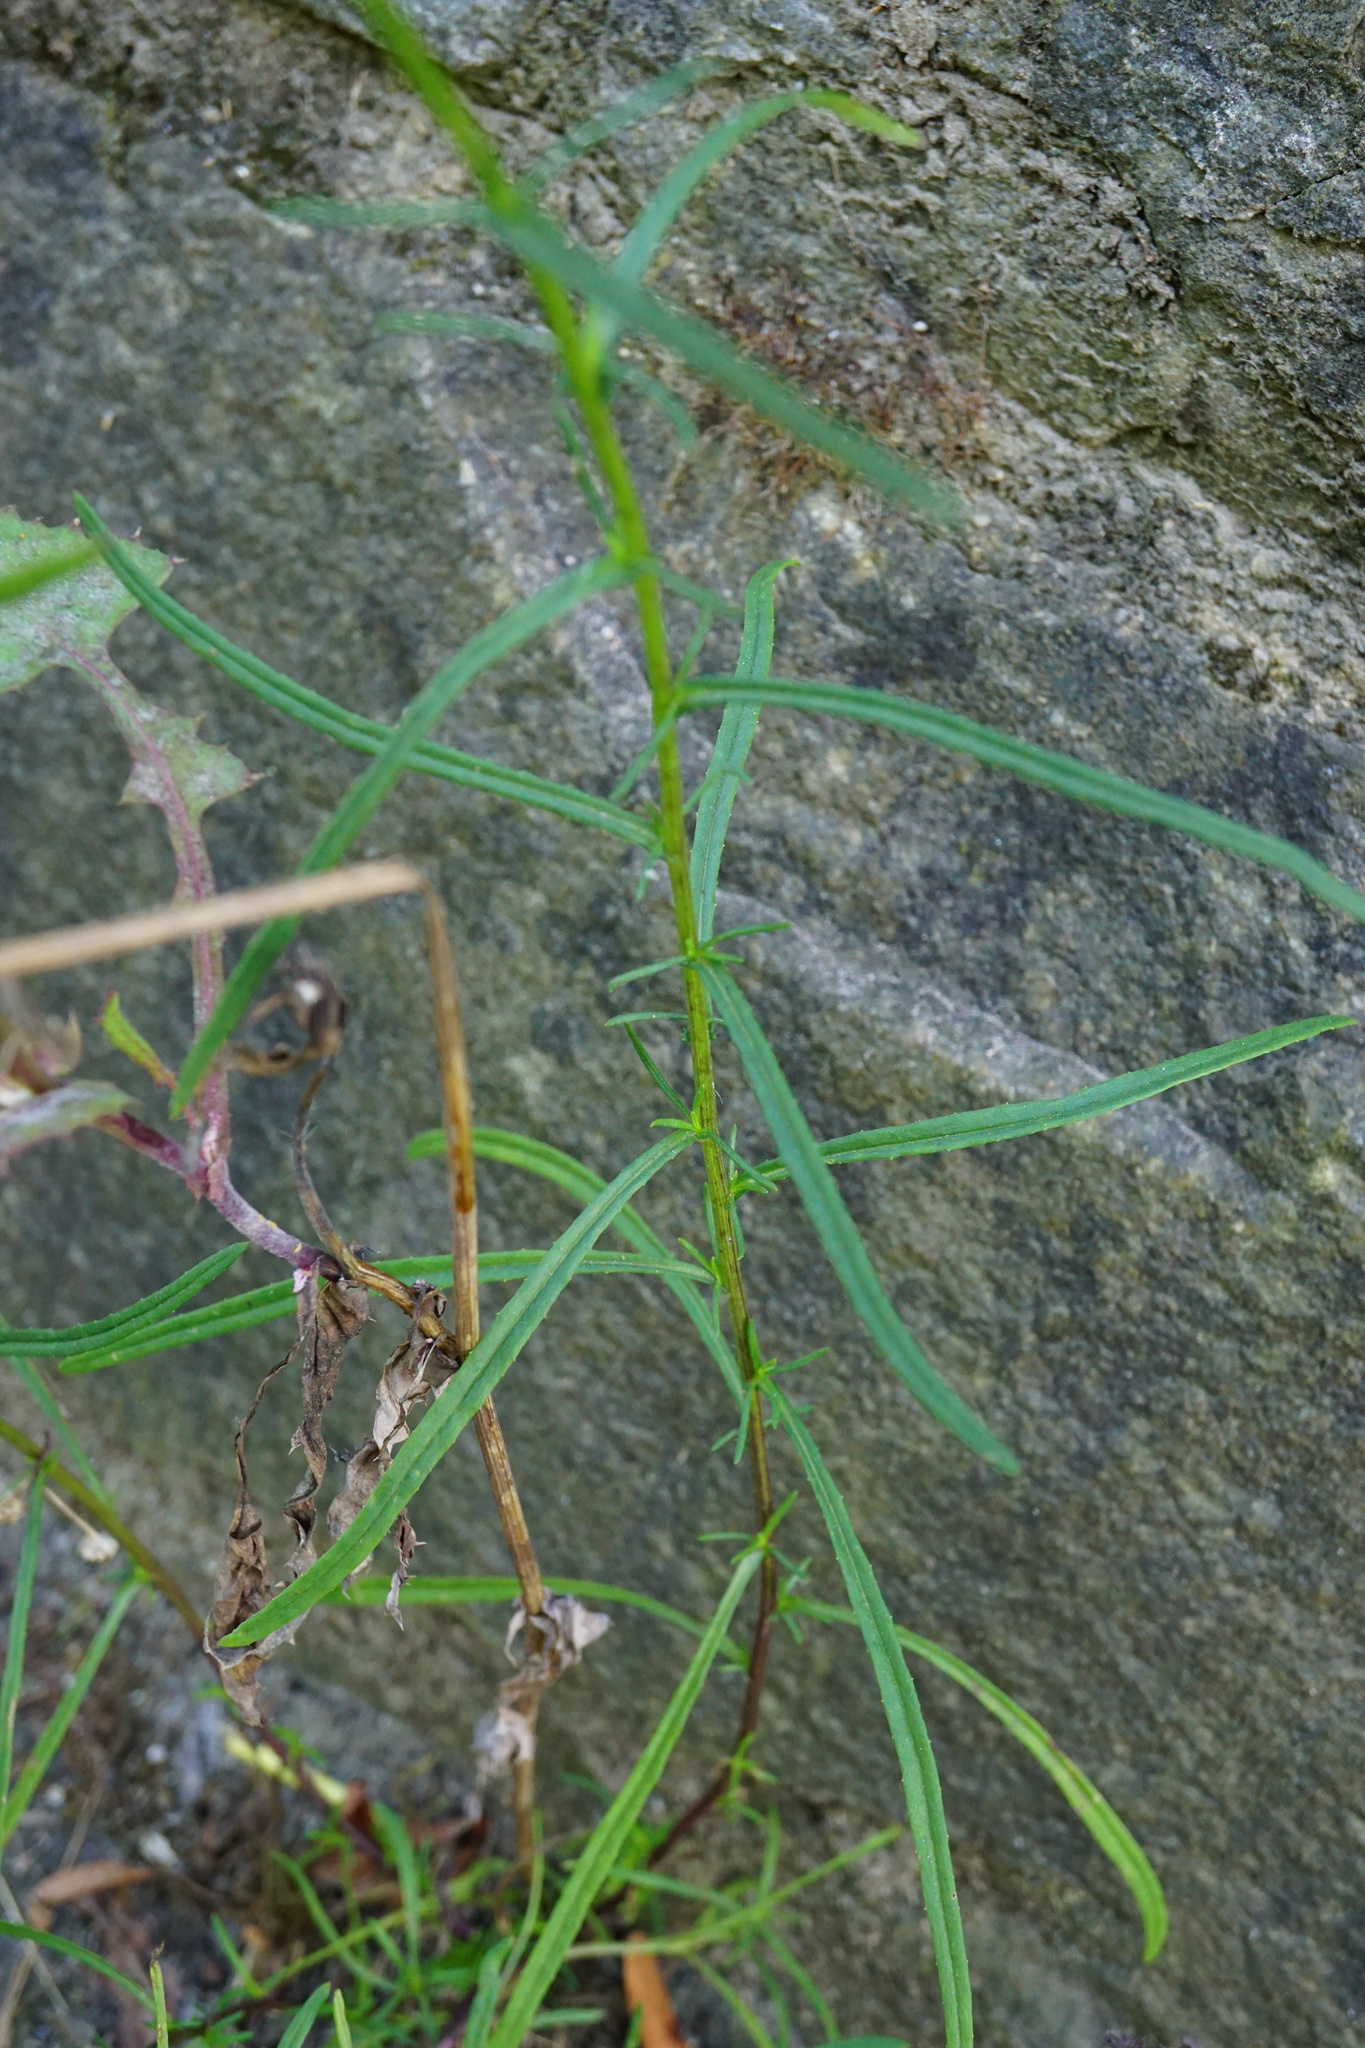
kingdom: Plantae
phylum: Tracheophyta
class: Magnoliopsida
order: Asterales
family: Asteraceae
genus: Senecio
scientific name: Senecio inaequidens
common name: Narrow-leaved ragwort
